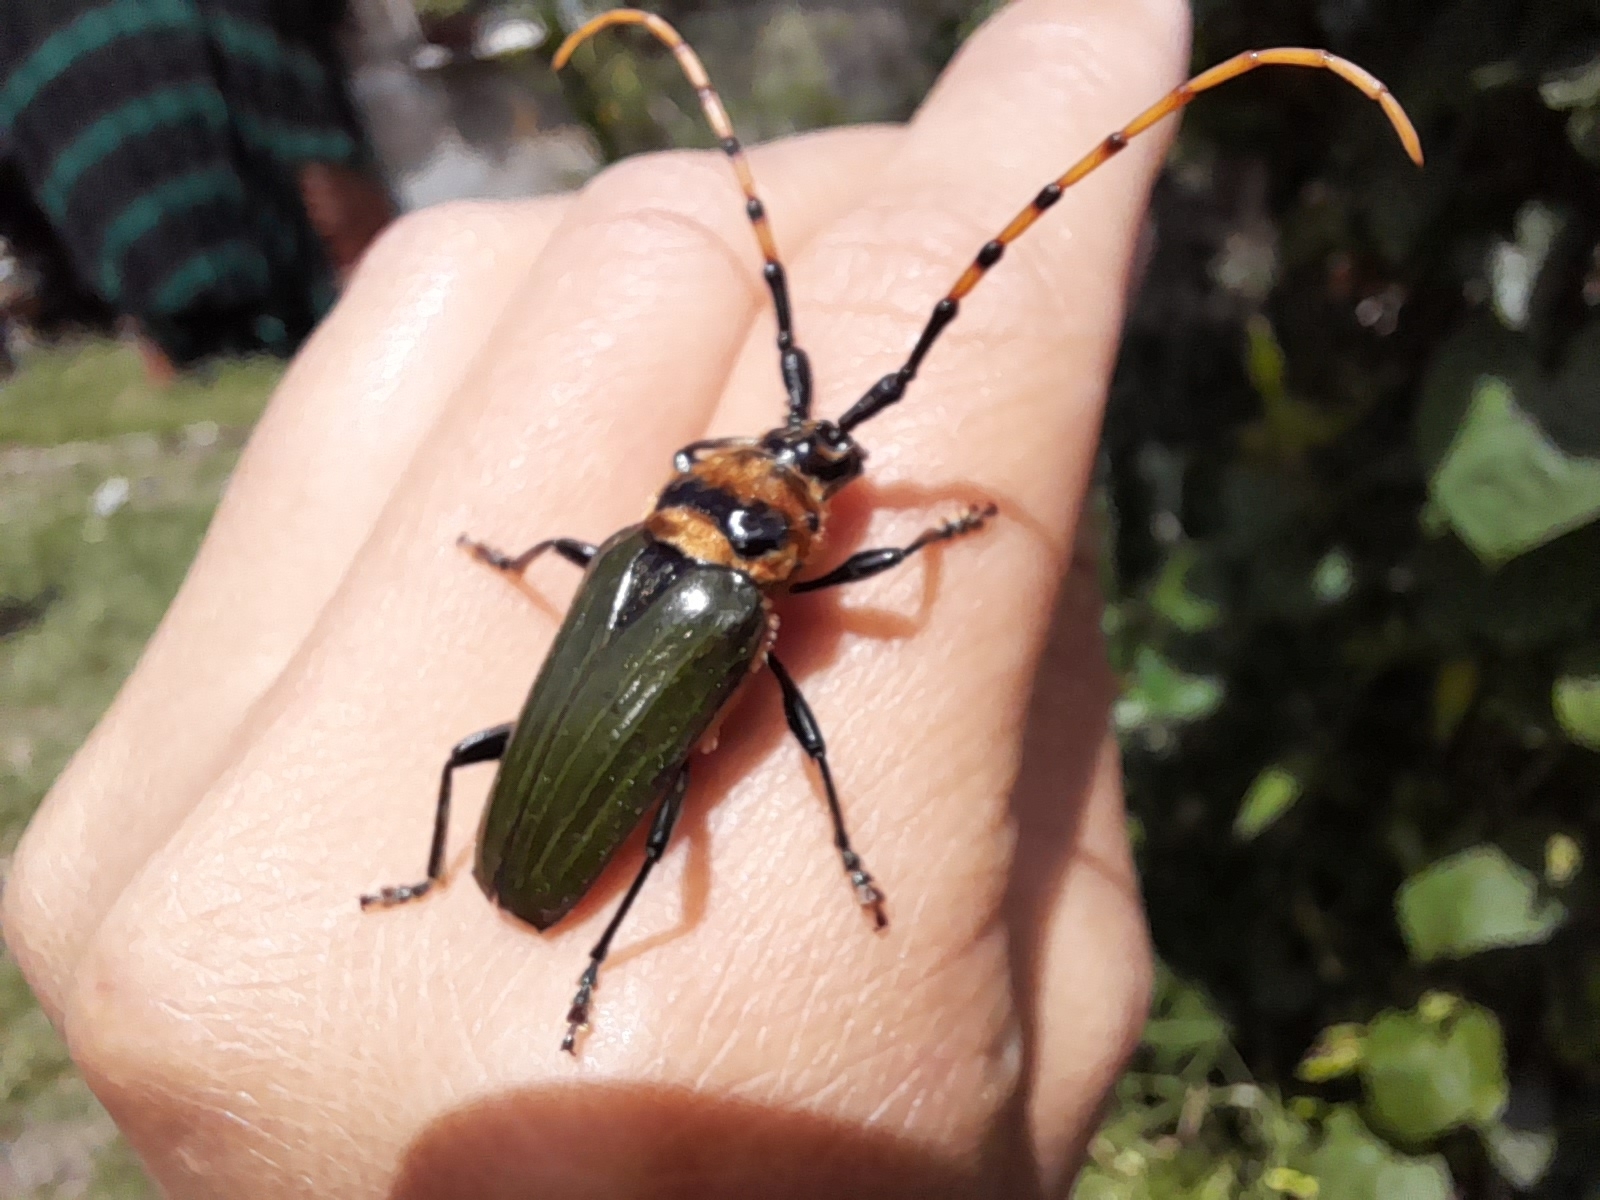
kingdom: Animalia
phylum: Arthropoda
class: Insecta
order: Coleoptera
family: Cerambycidae
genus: Retrachydes
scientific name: Retrachydes thoracicus
